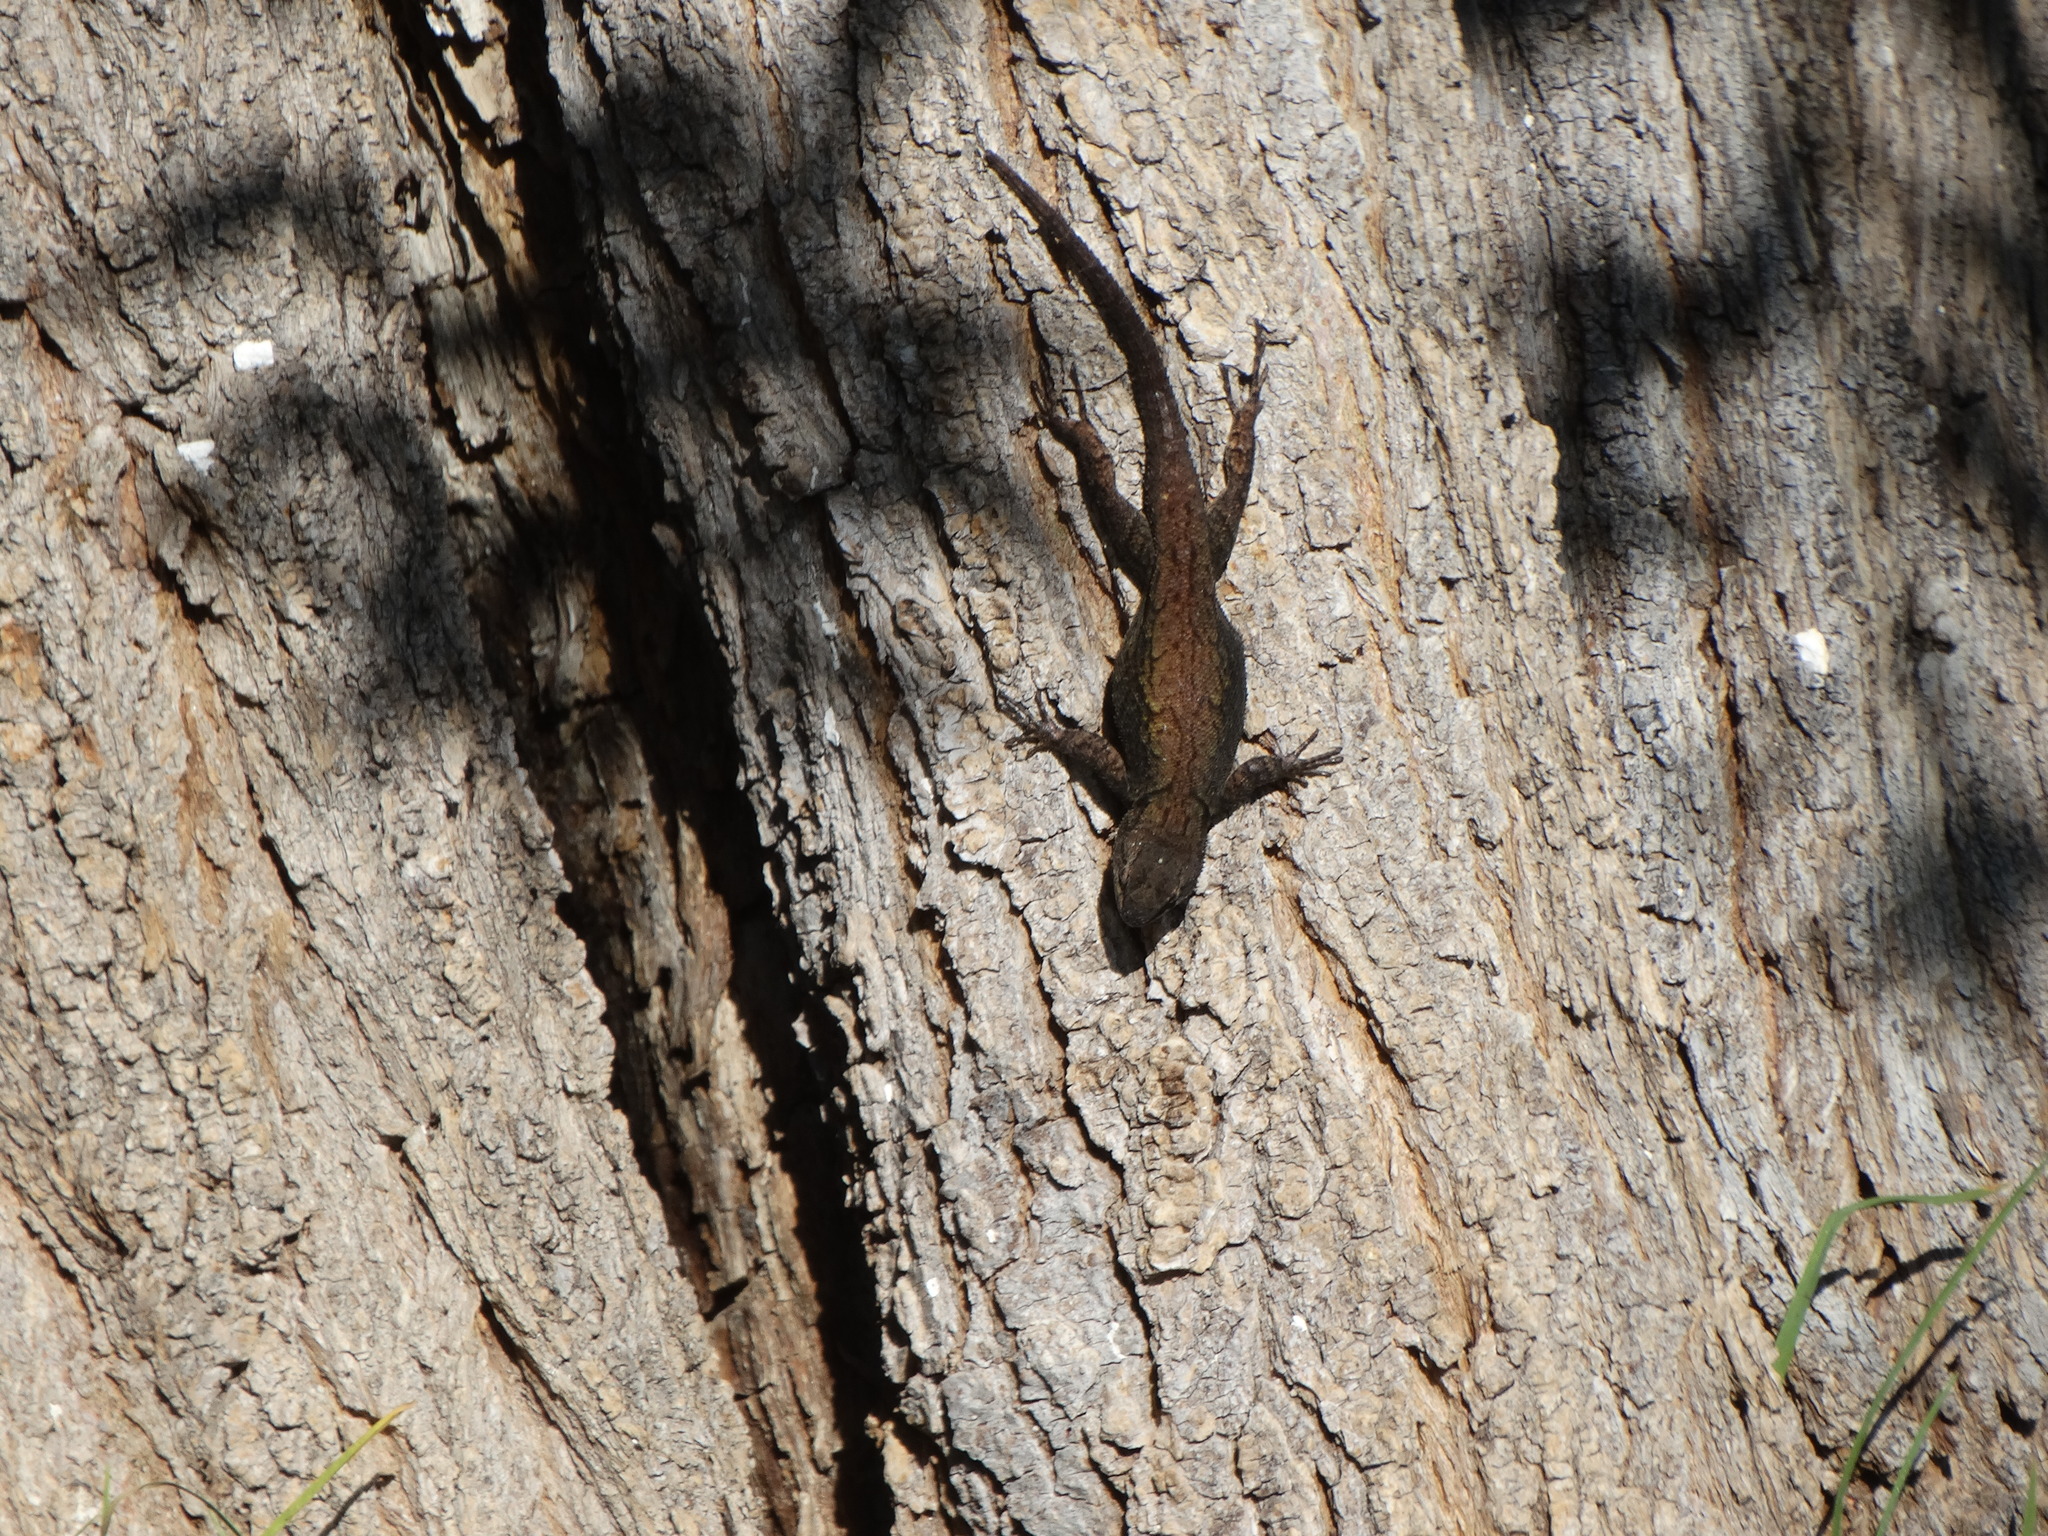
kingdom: Animalia
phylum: Chordata
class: Squamata
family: Phrynosomatidae
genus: Sceloporus
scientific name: Sceloporus grammicus
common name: Mesquite lizard
